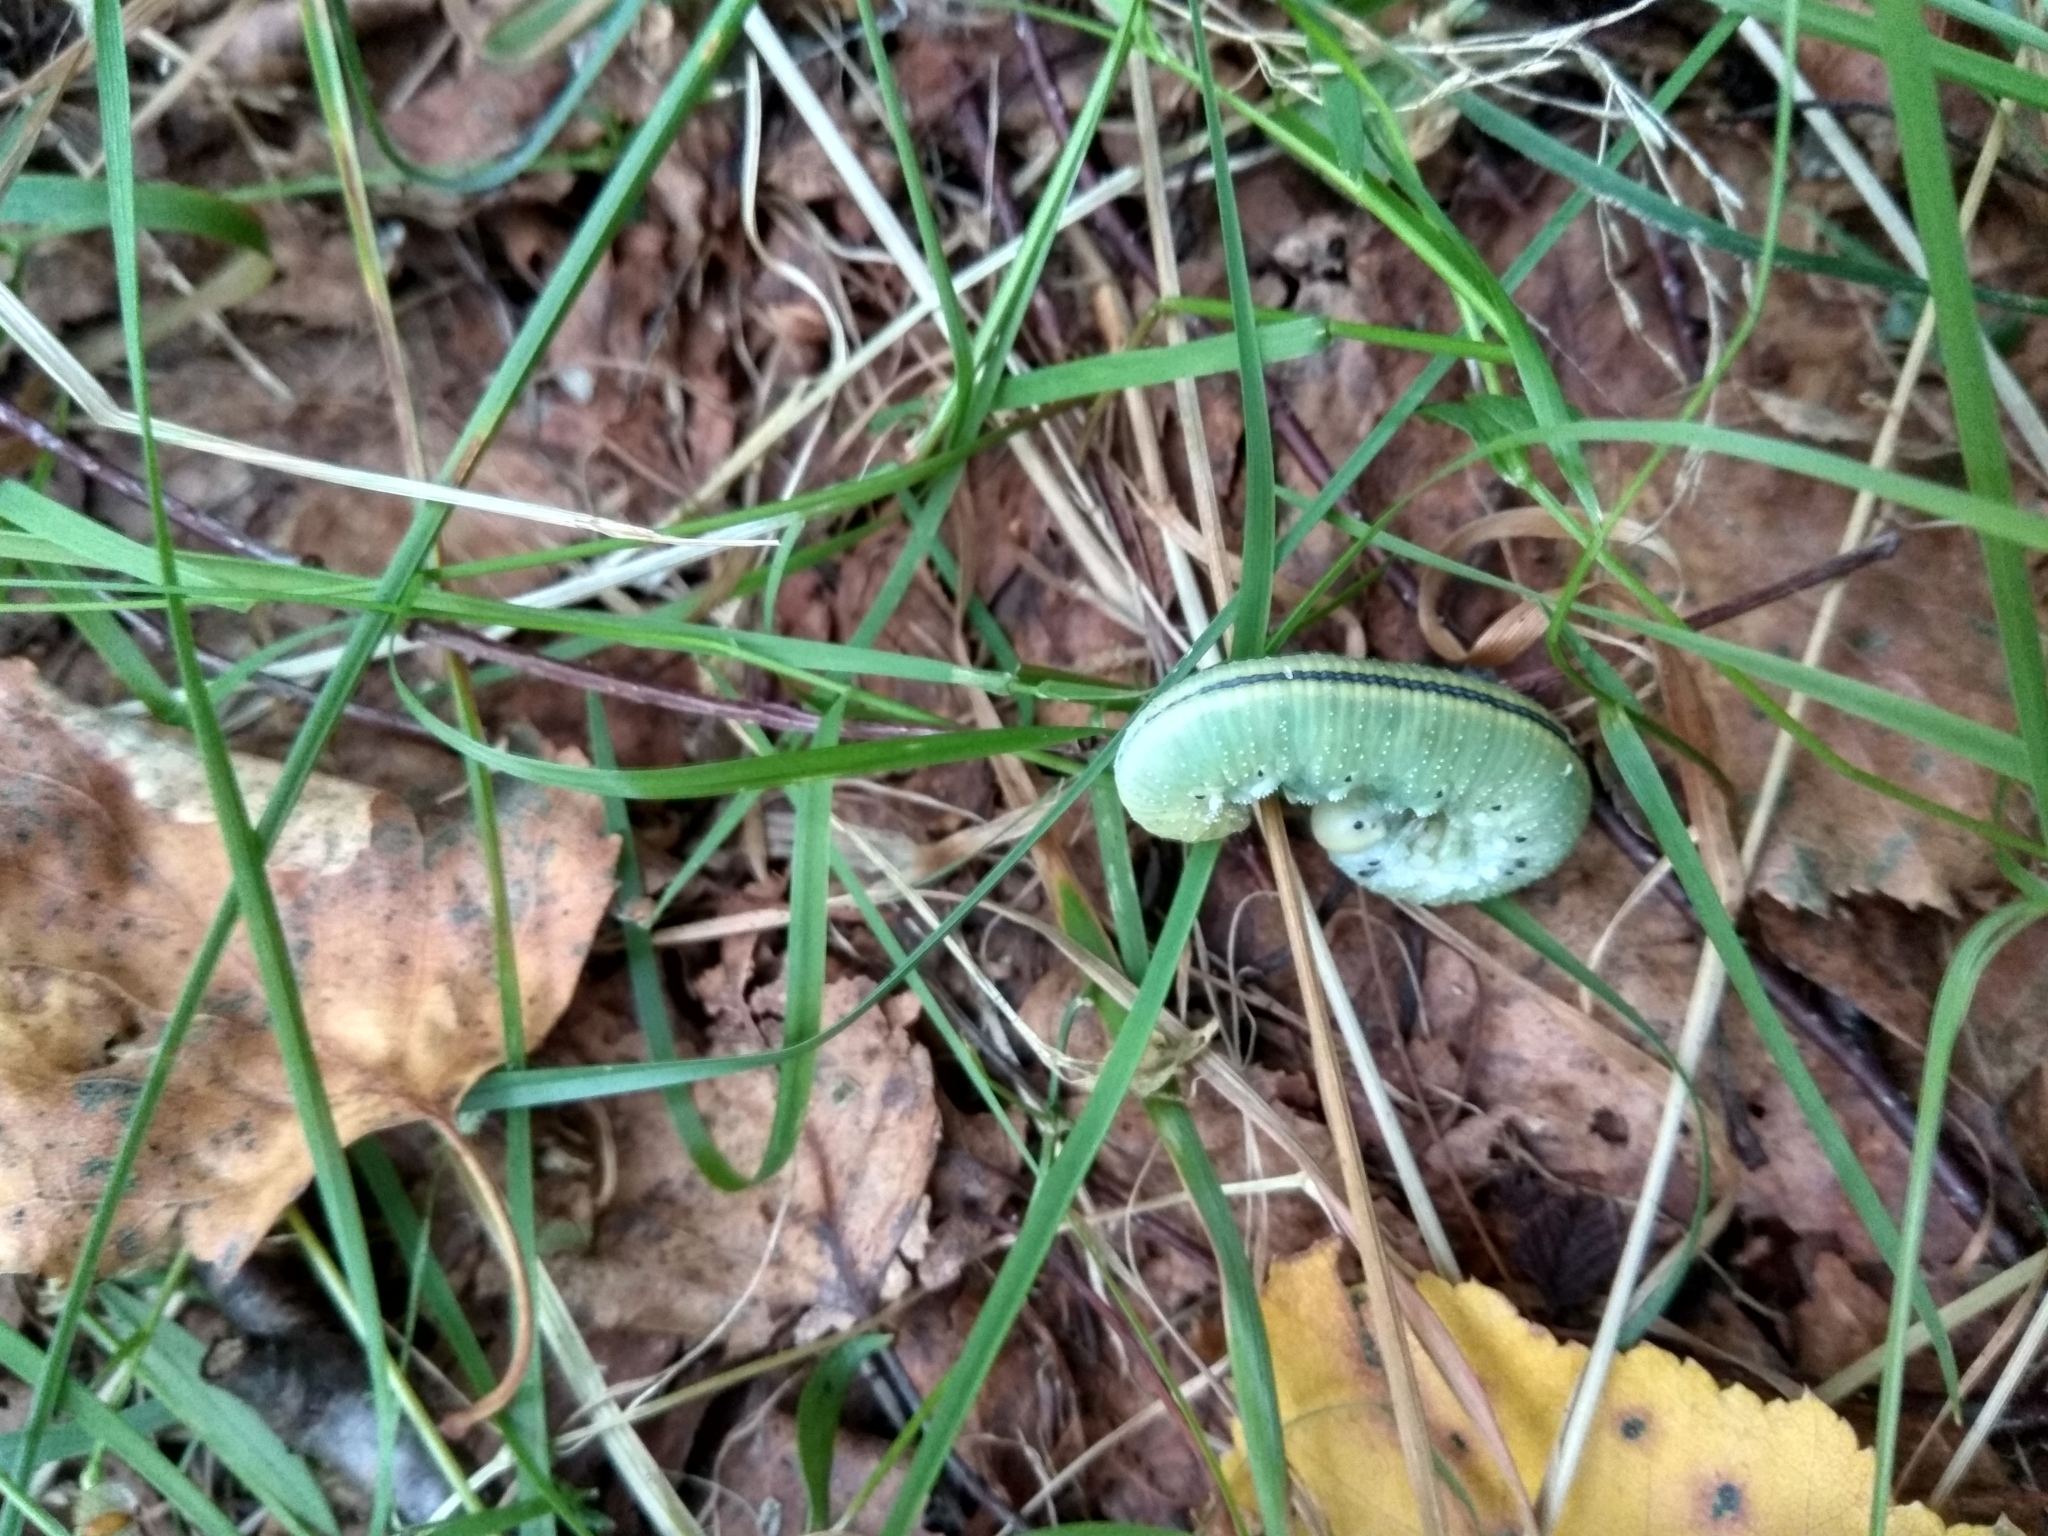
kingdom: Animalia
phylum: Arthropoda
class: Insecta
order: Hymenoptera
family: Cimbicidae
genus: Cimbex
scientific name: Cimbex femoratus
